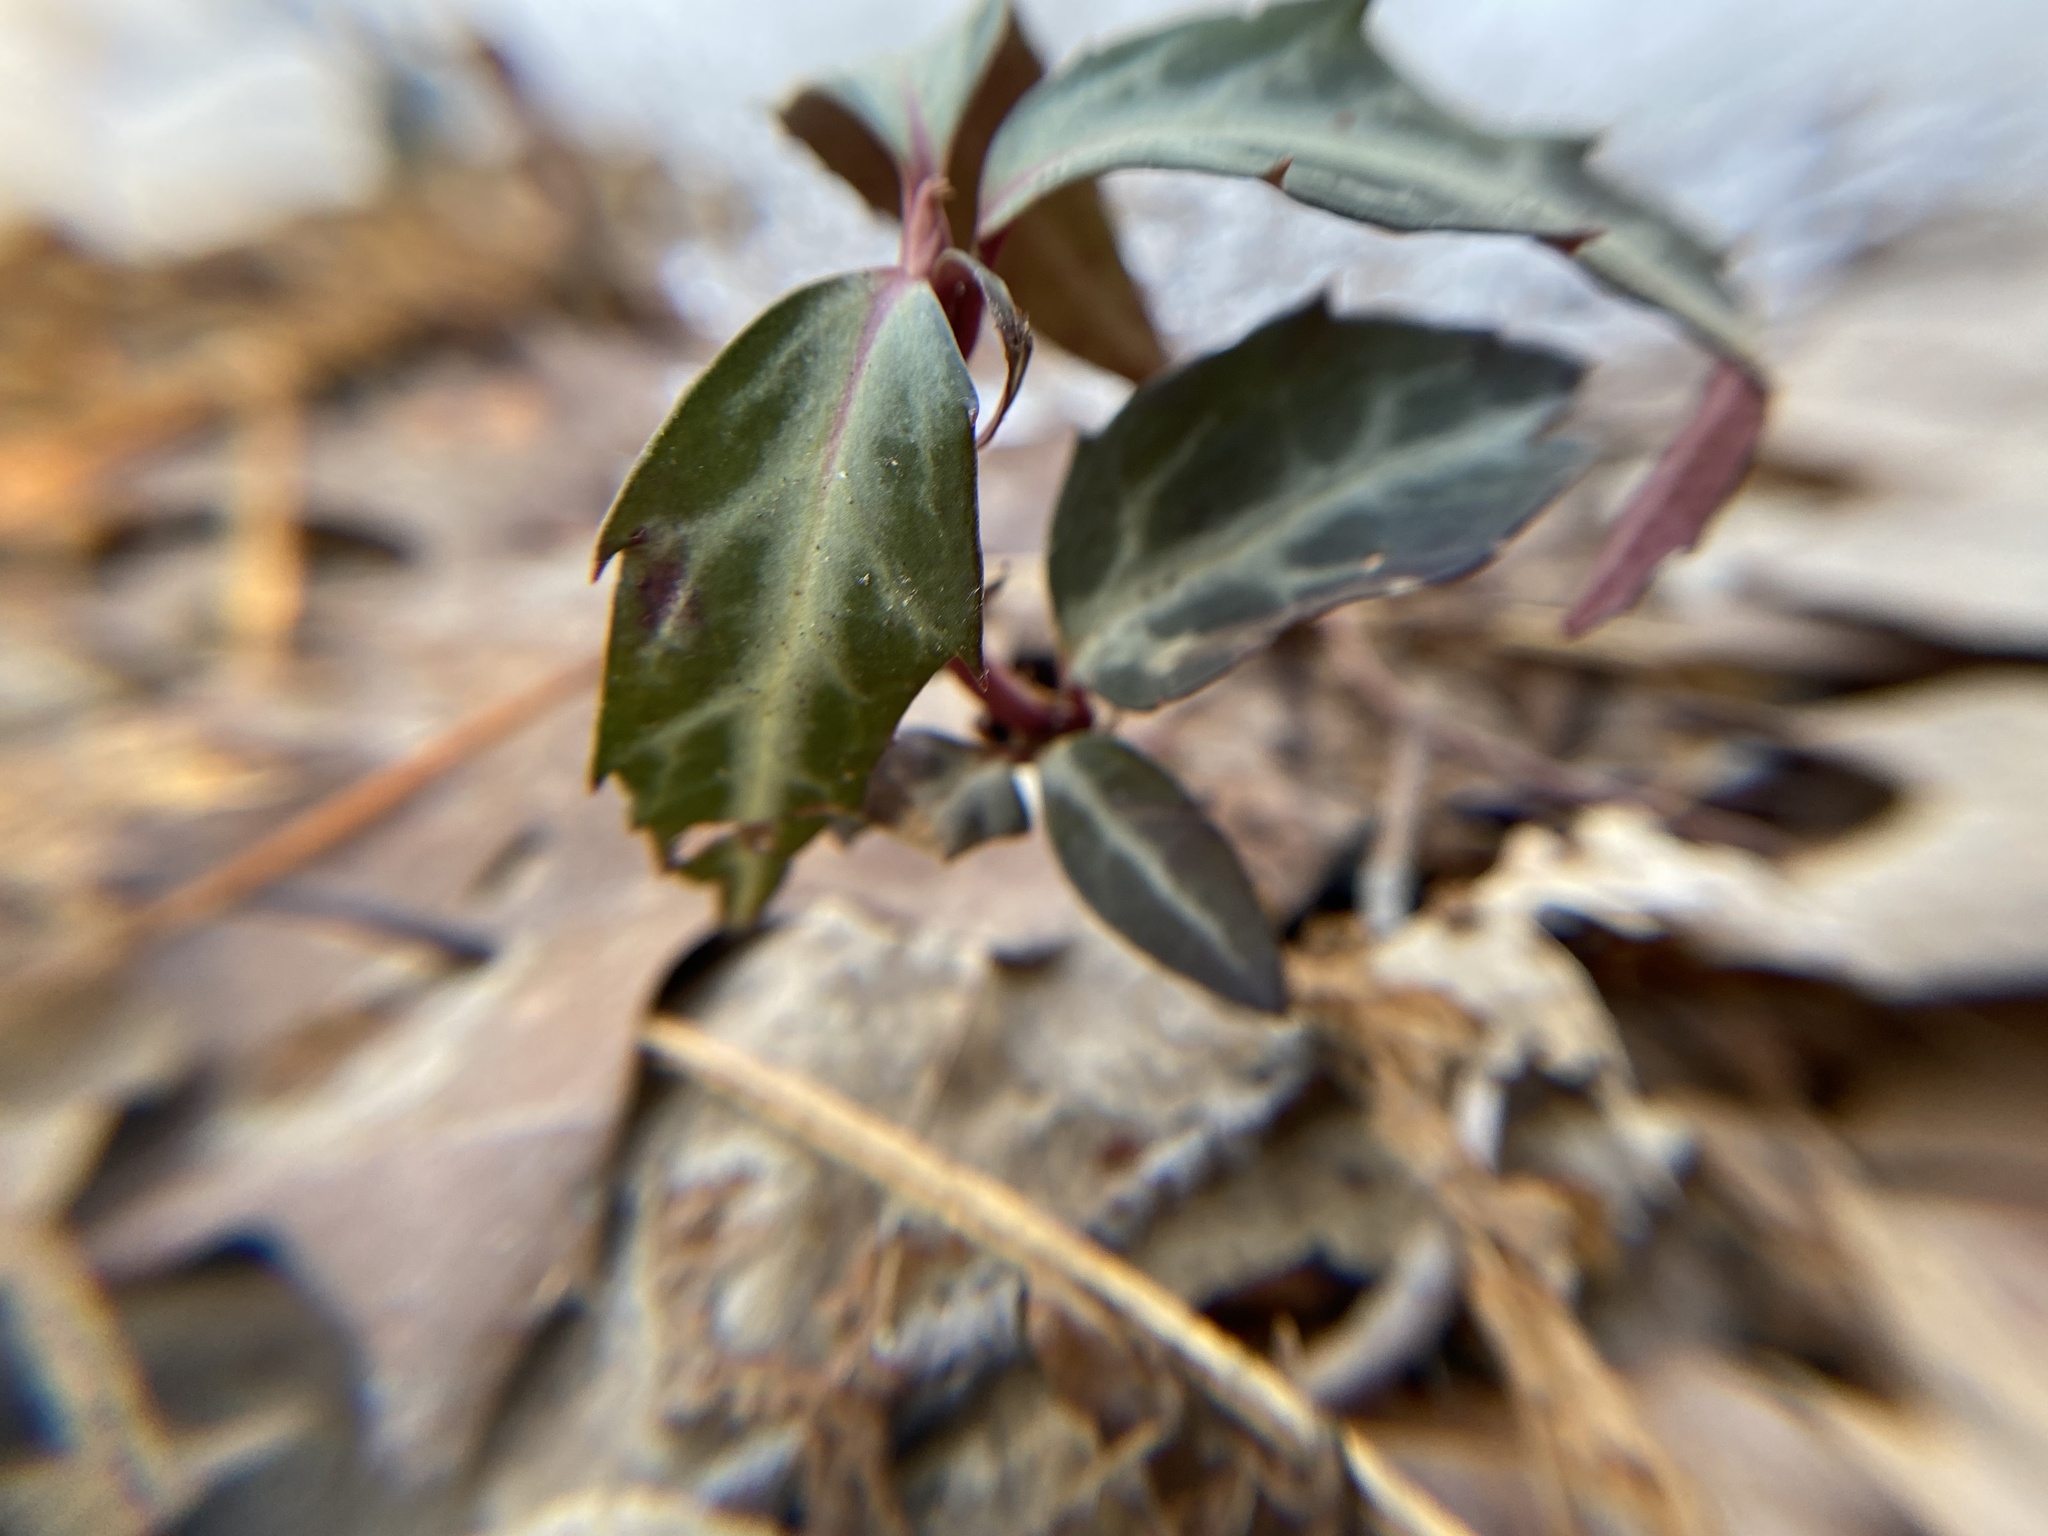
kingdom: Plantae
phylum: Tracheophyta
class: Magnoliopsida
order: Ericales
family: Ericaceae
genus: Chimaphila
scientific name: Chimaphila maculata
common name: Spotted pipsissewa
